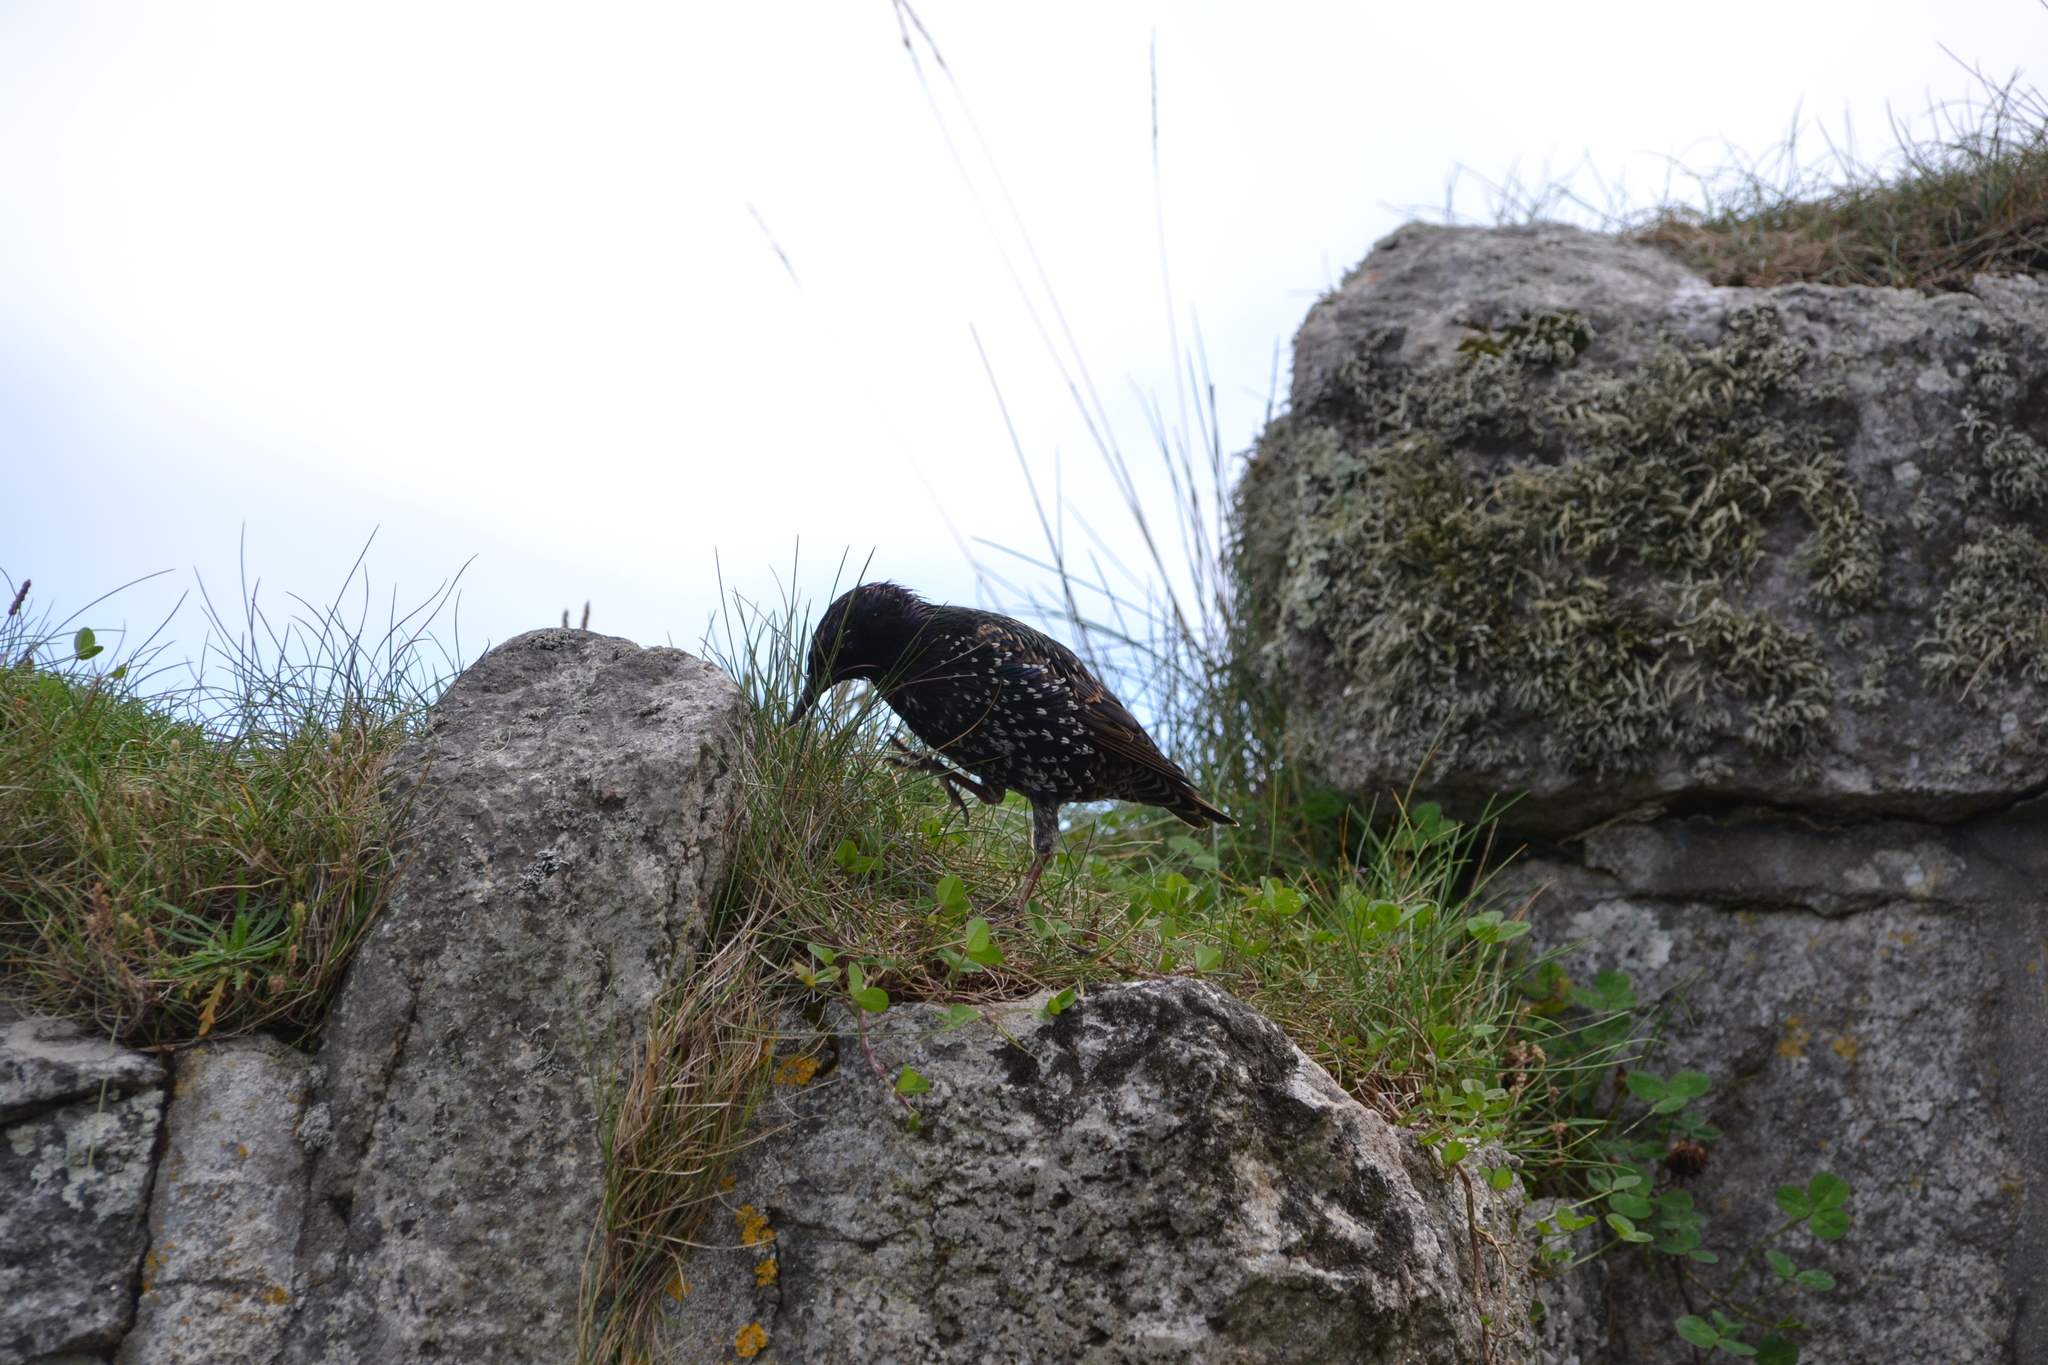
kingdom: Animalia
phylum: Chordata
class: Aves
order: Passeriformes
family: Sturnidae
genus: Sturnus
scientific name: Sturnus vulgaris
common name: Common starling
